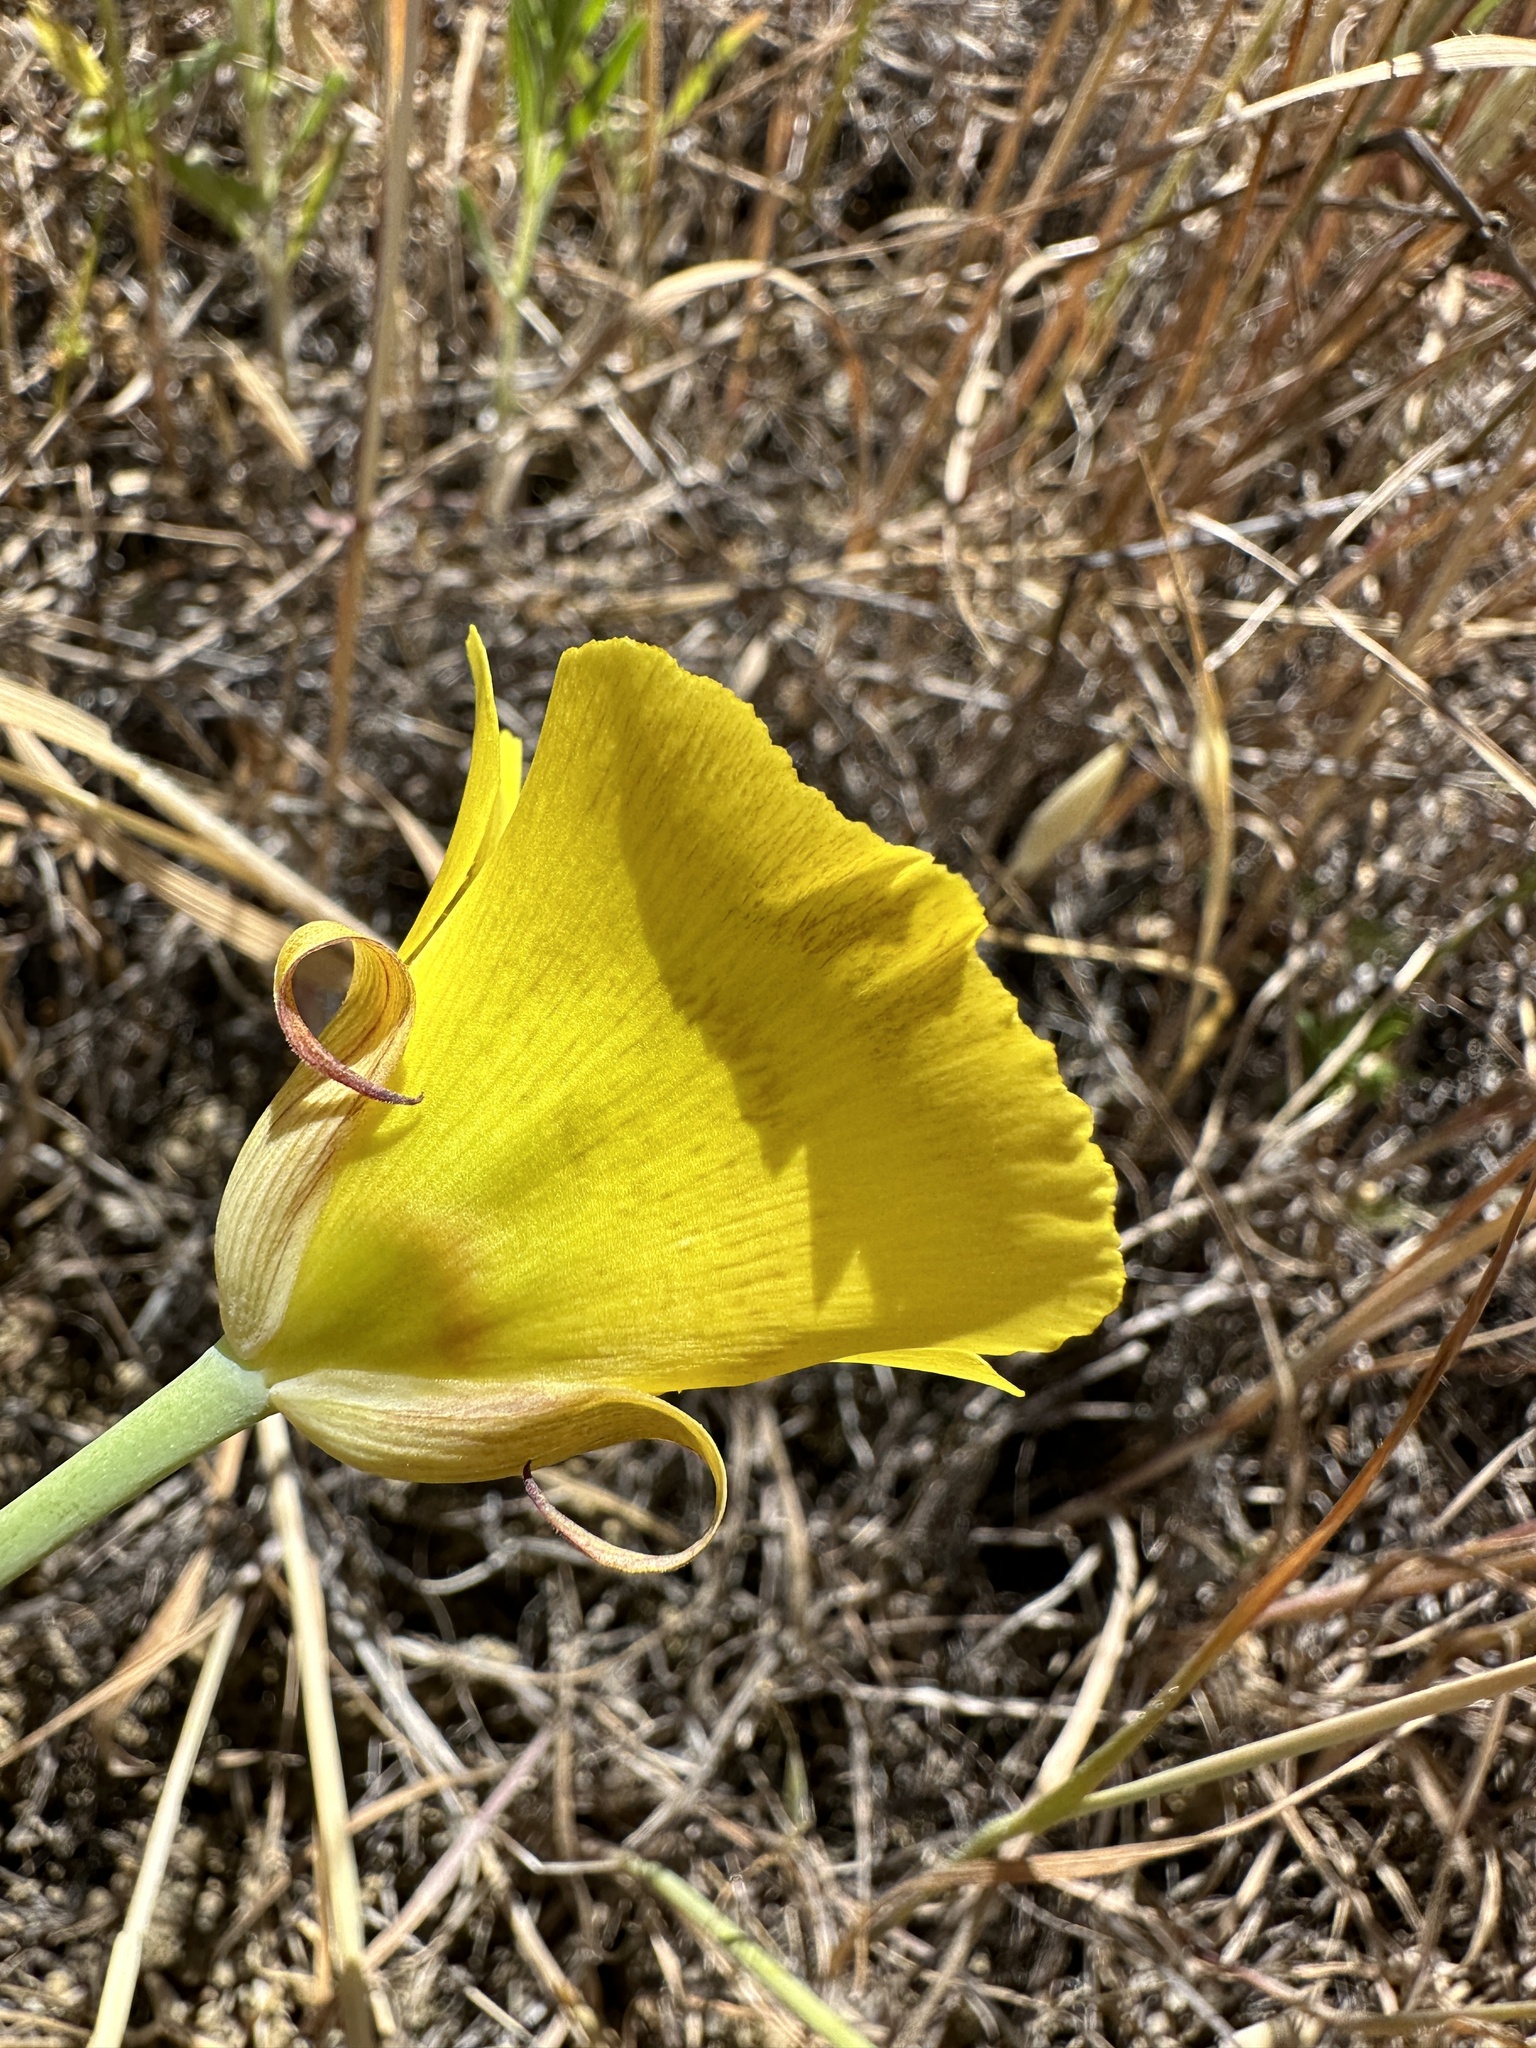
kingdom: Plantae
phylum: Tracheophyta
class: Liliopsida
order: Liliales
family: Liliaceae
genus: Calochortus
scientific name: Calochortus luteus
